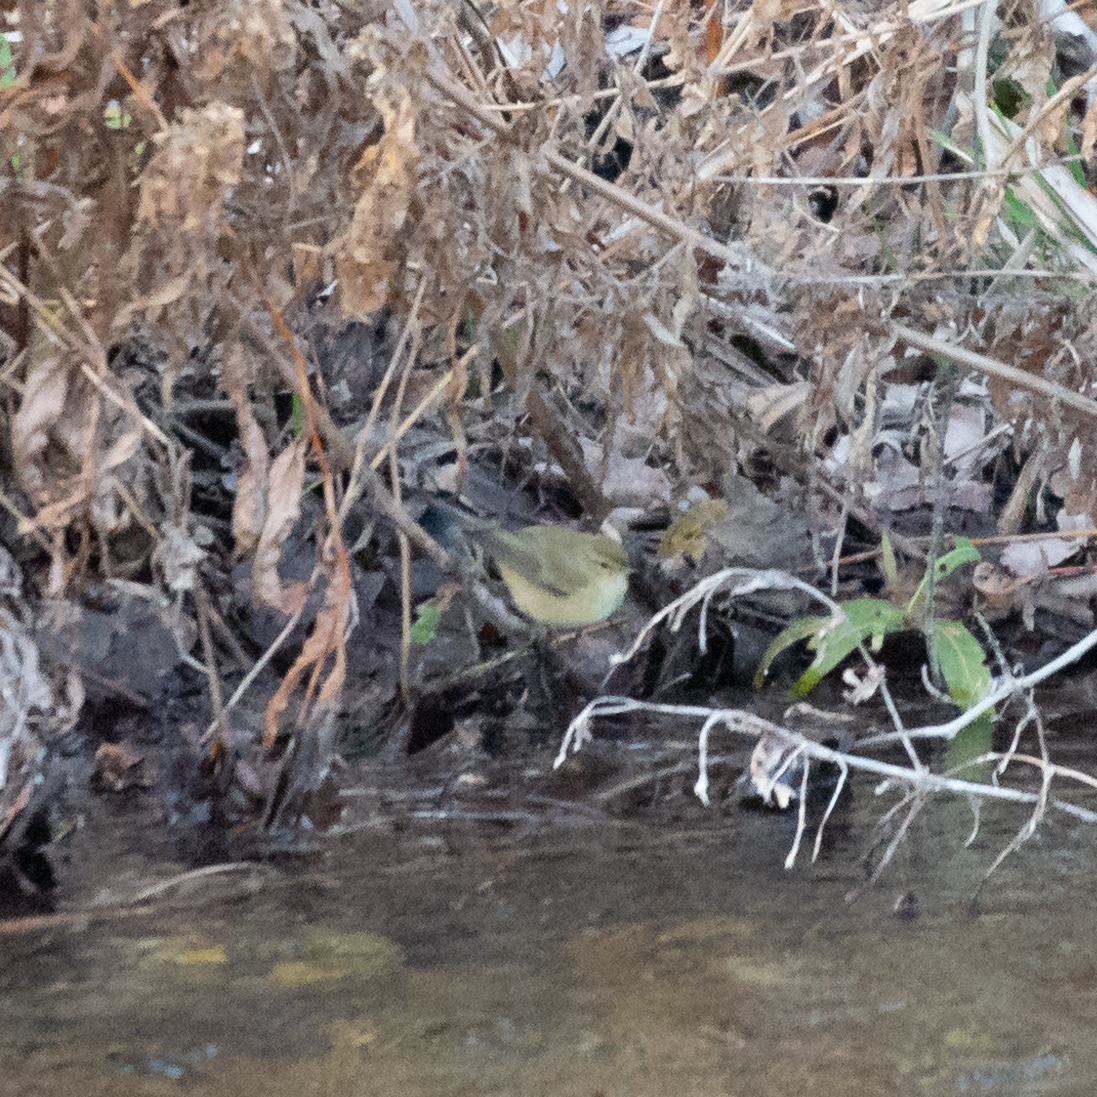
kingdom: Animalia
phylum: Chordata
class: Aves
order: Passeriformes
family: Phylloscopidae
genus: Phylloscopus
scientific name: Phylloscopus collybita
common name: Common chiffchaff
